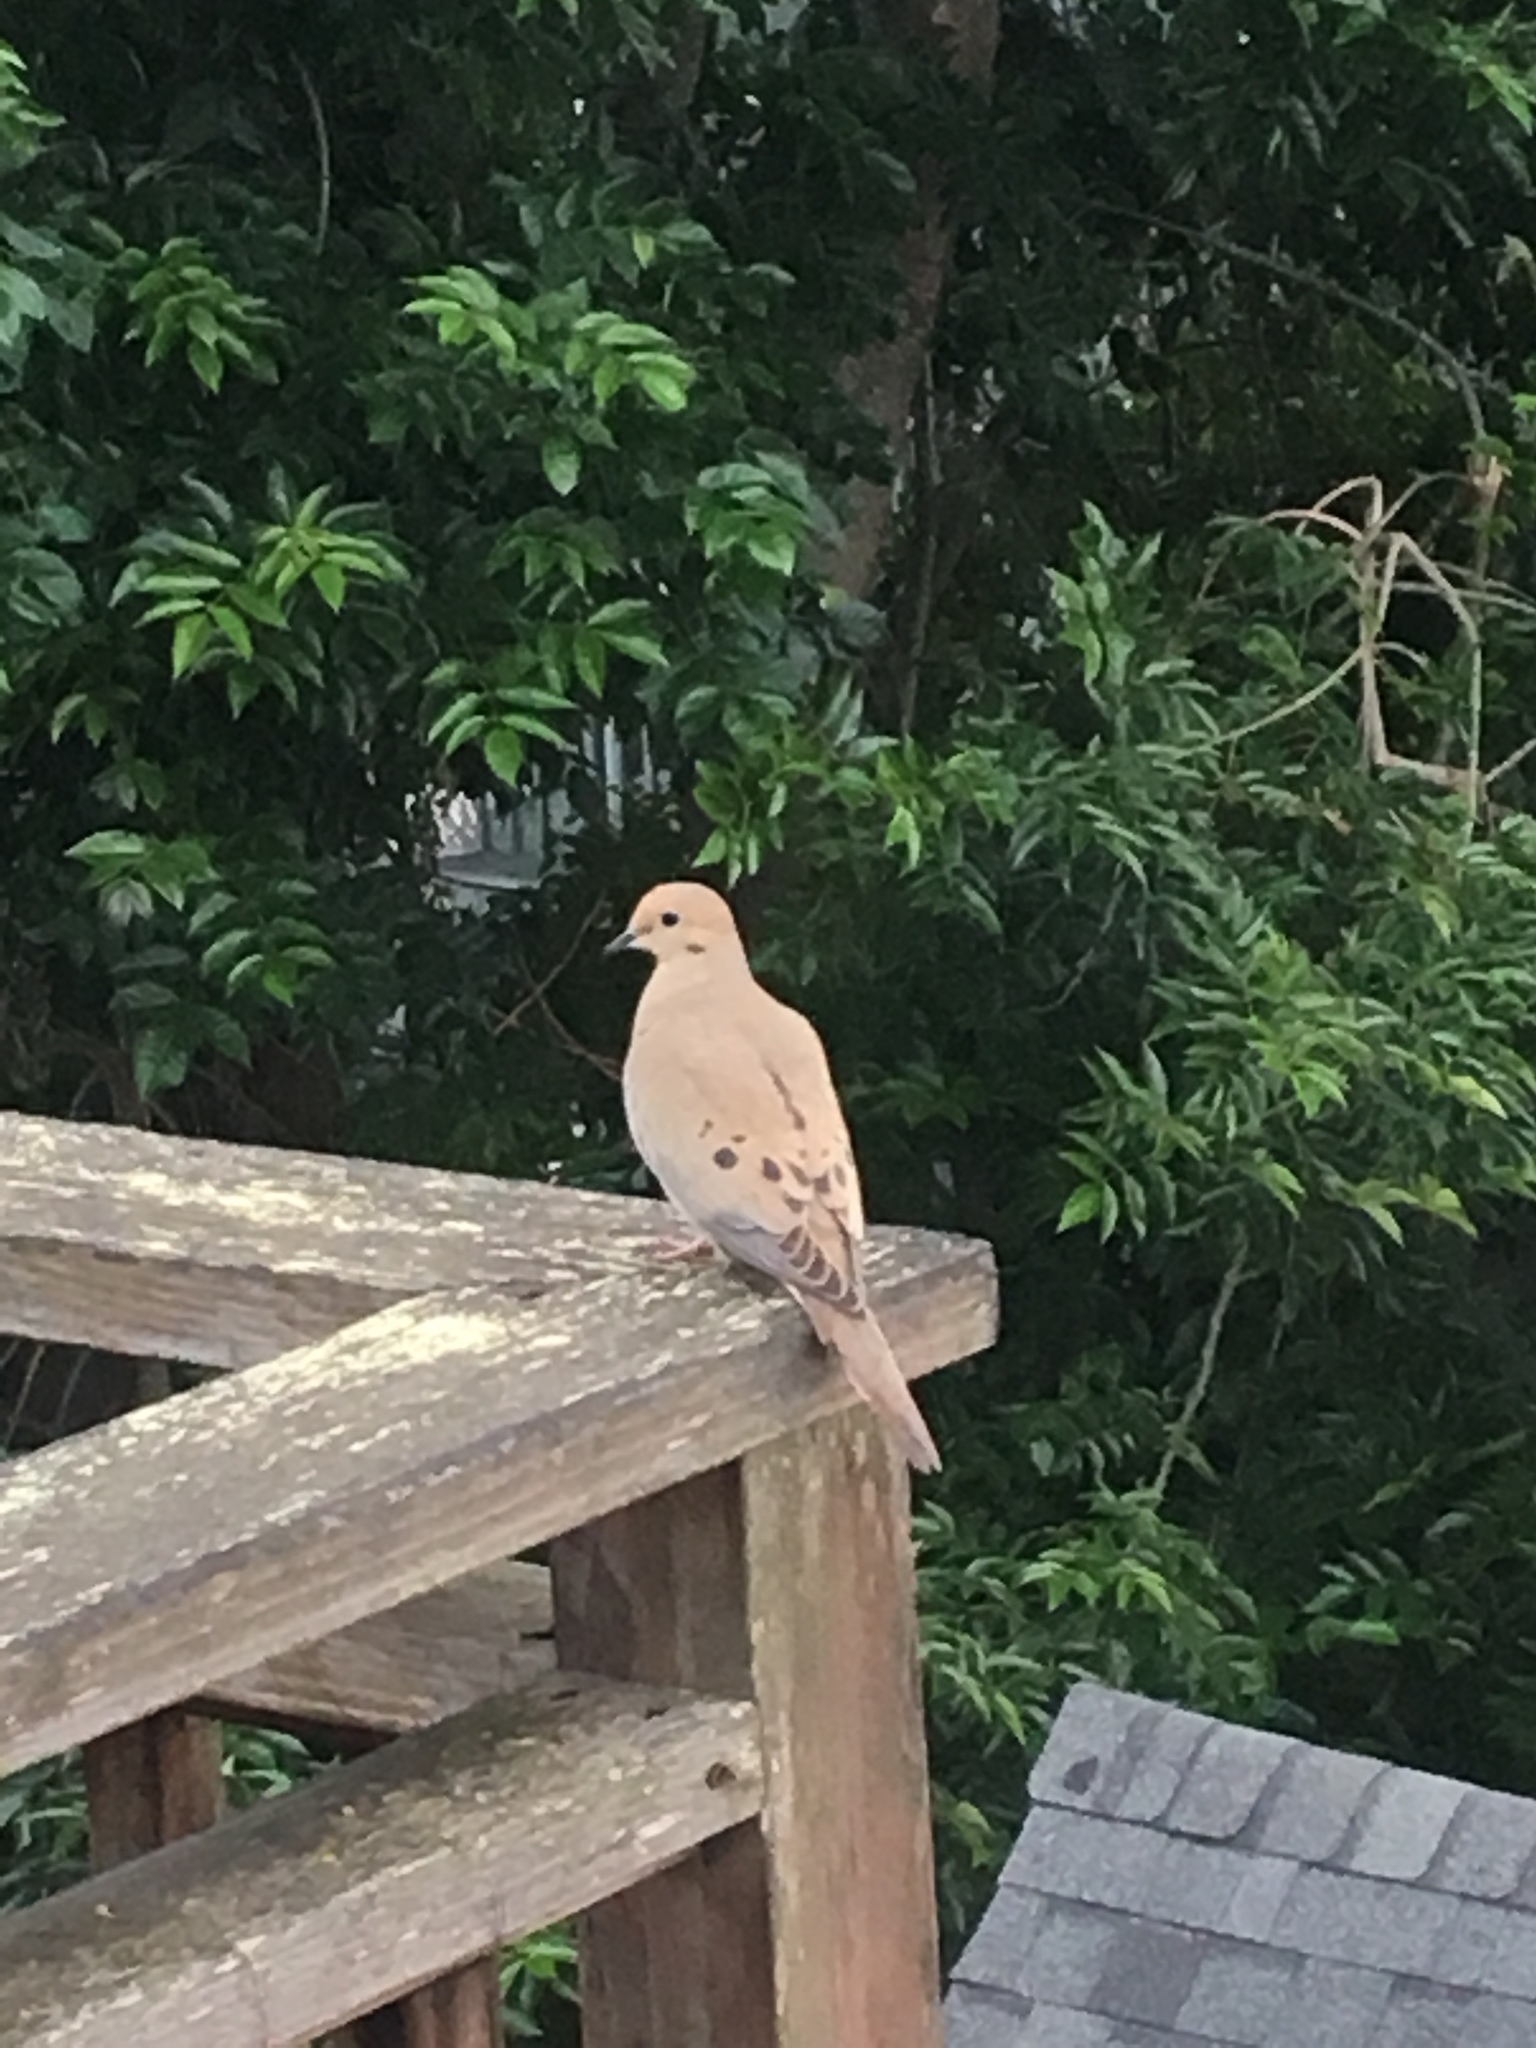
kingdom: Animalia
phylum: Chordata
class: Aves
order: Columbiformes
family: Columbidae
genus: Zenaida
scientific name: Zenaida macroura
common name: Mourning dove
